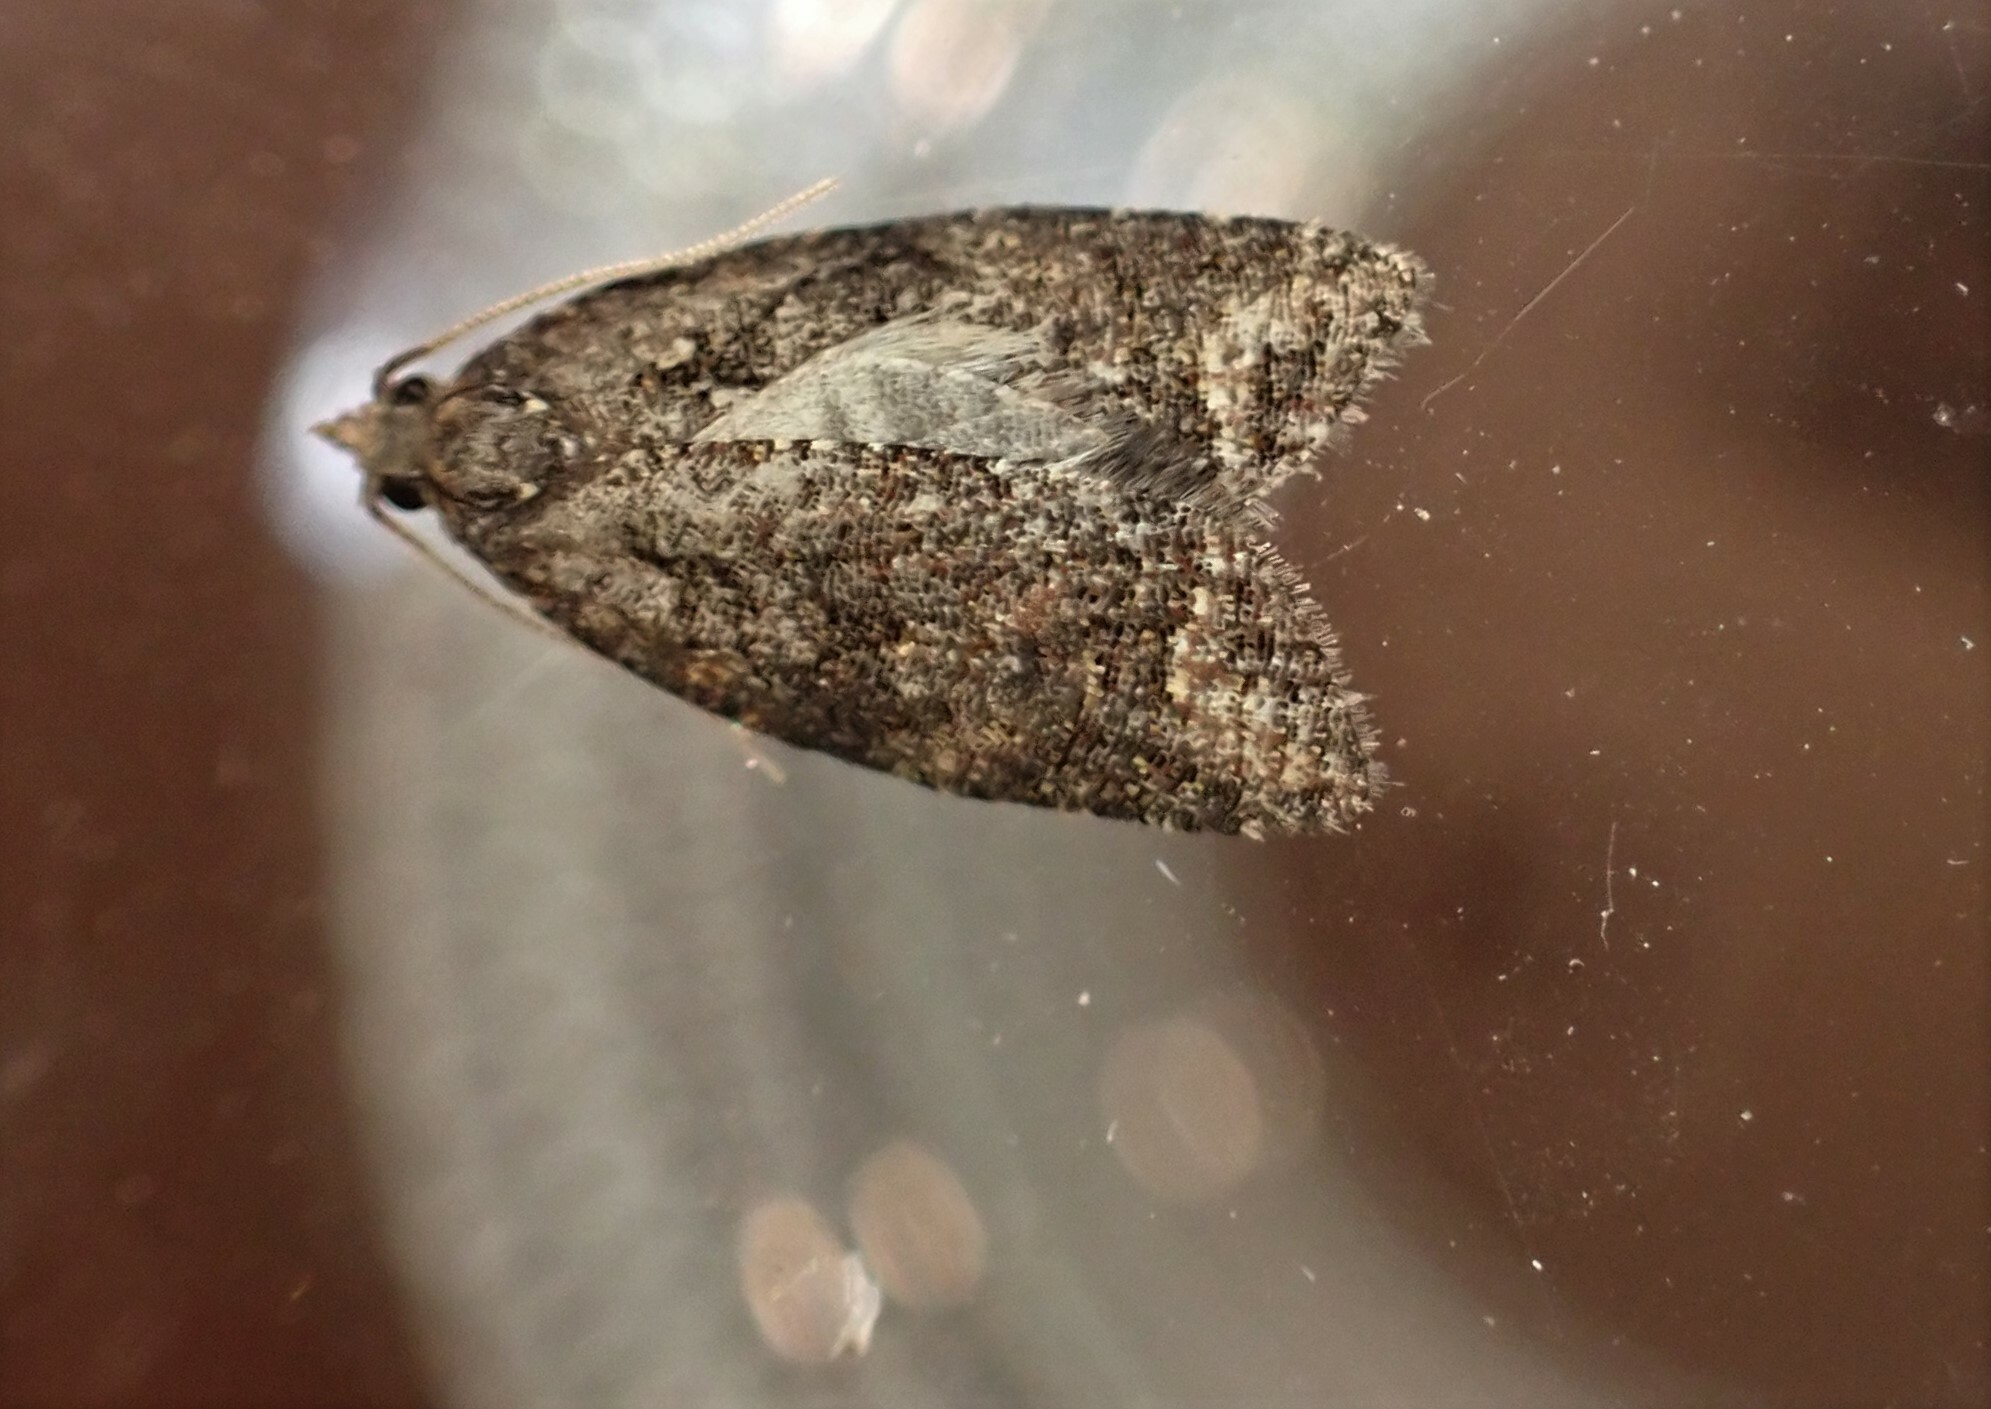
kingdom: Animalia
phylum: Arthropoda
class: Insecta
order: Lepidoptera
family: Tortricidae
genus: Capua
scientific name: Capua intractana
